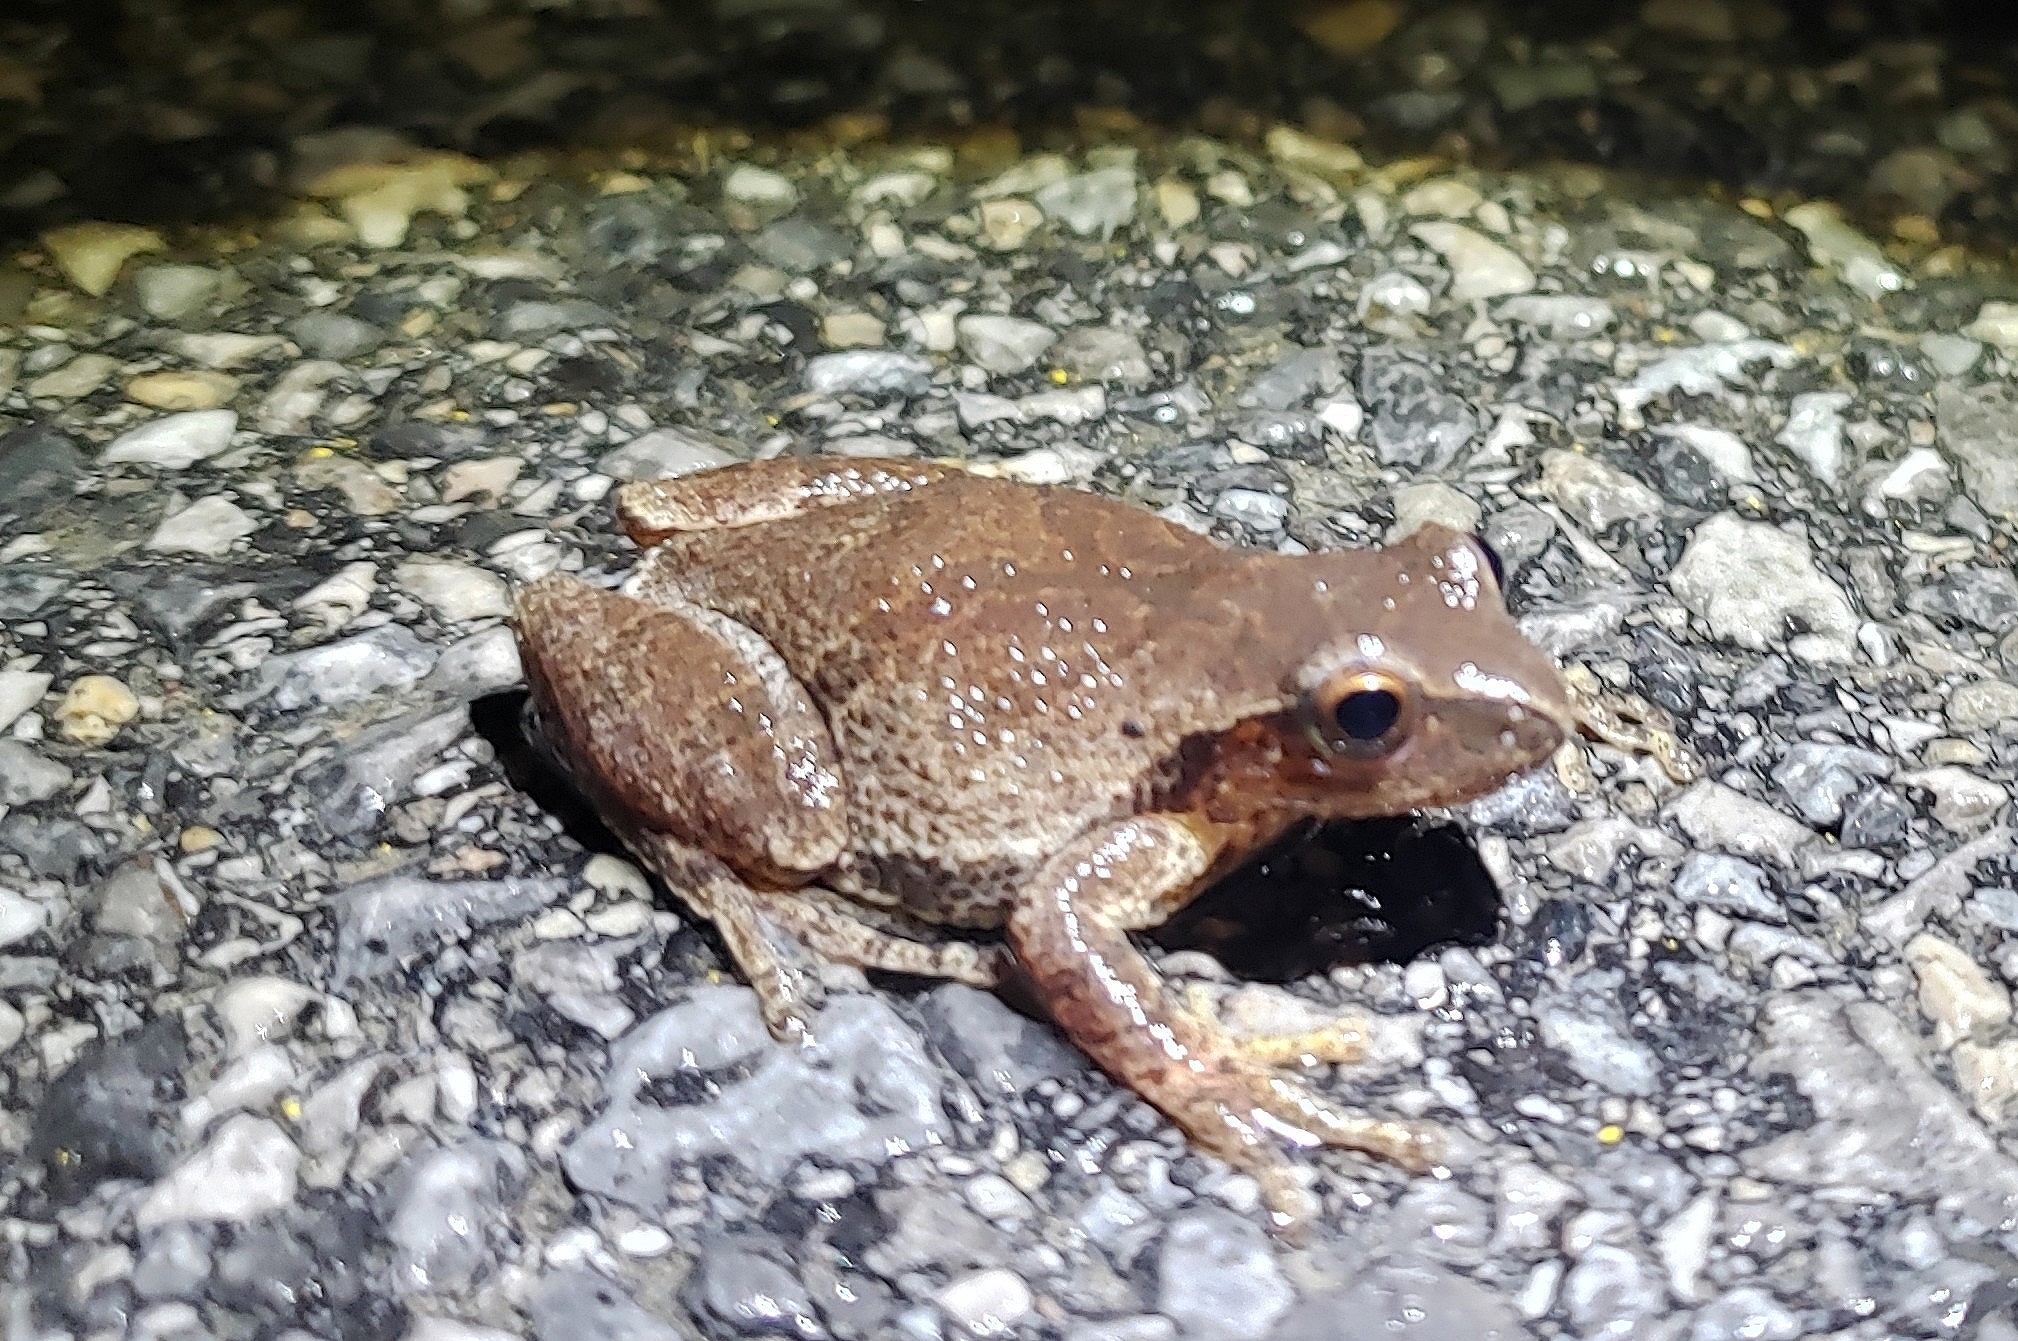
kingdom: Animalia
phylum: Chordata
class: Amphibia
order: Anura
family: Hylidae
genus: Pseudacris
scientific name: Pseudacris crucifer
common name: Spring peeper
